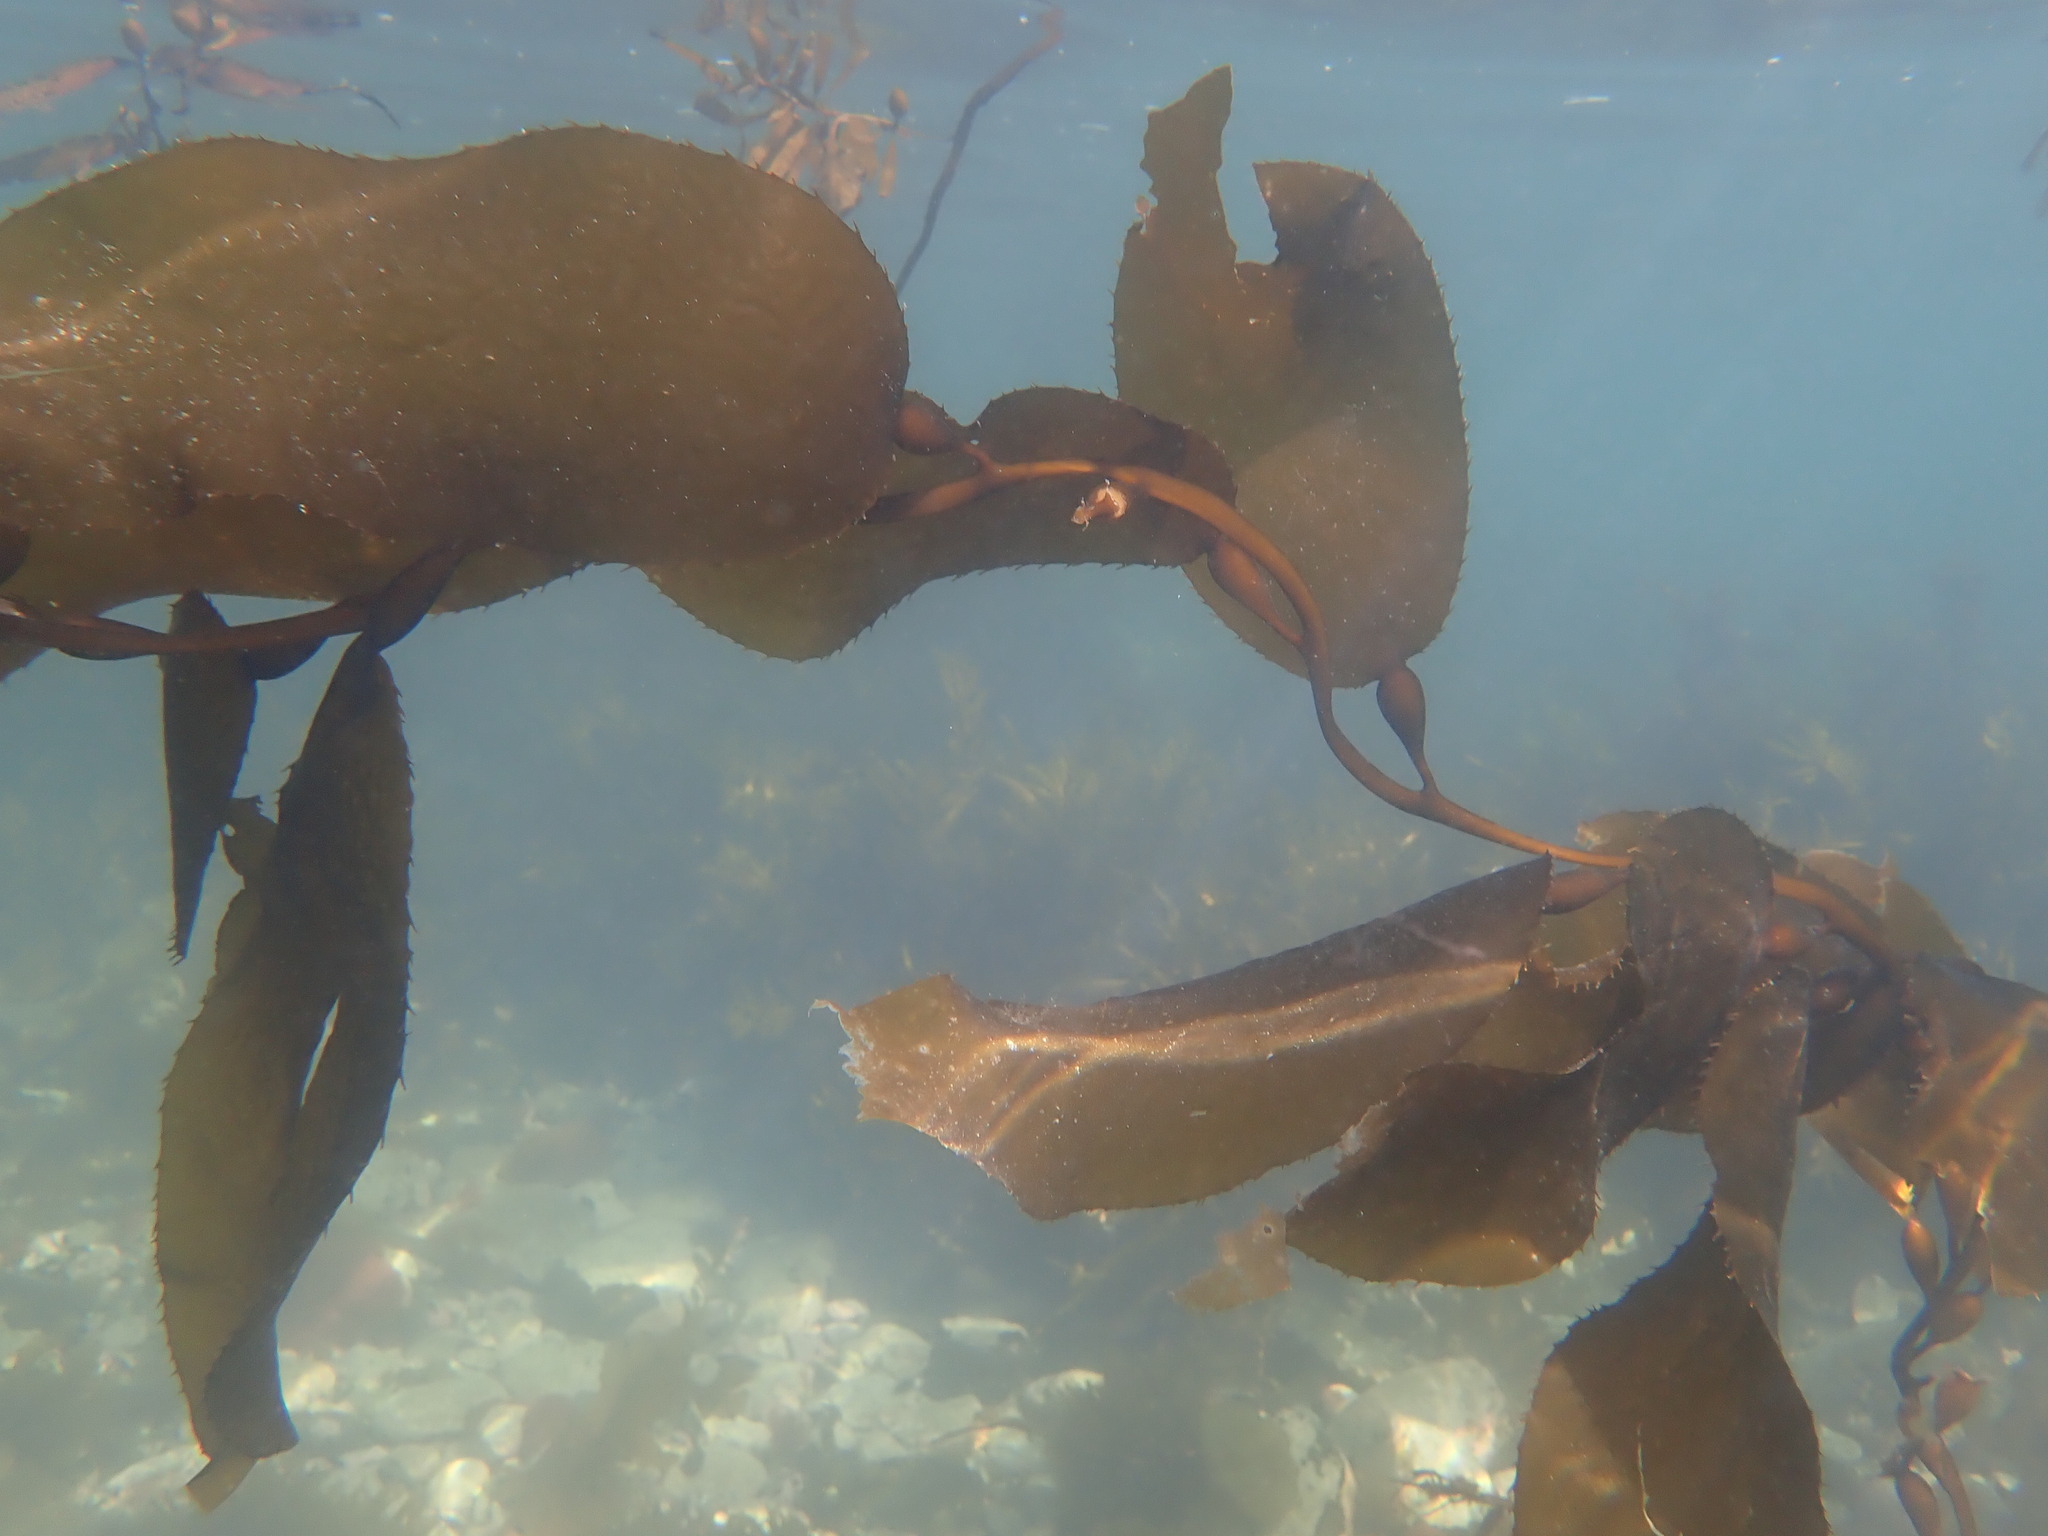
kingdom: Chromista
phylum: Ochrophyta
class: Phaeophyceae
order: Laminariales
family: Laminariaceae
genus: Macrocystis
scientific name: Macrocystis pyrifera
